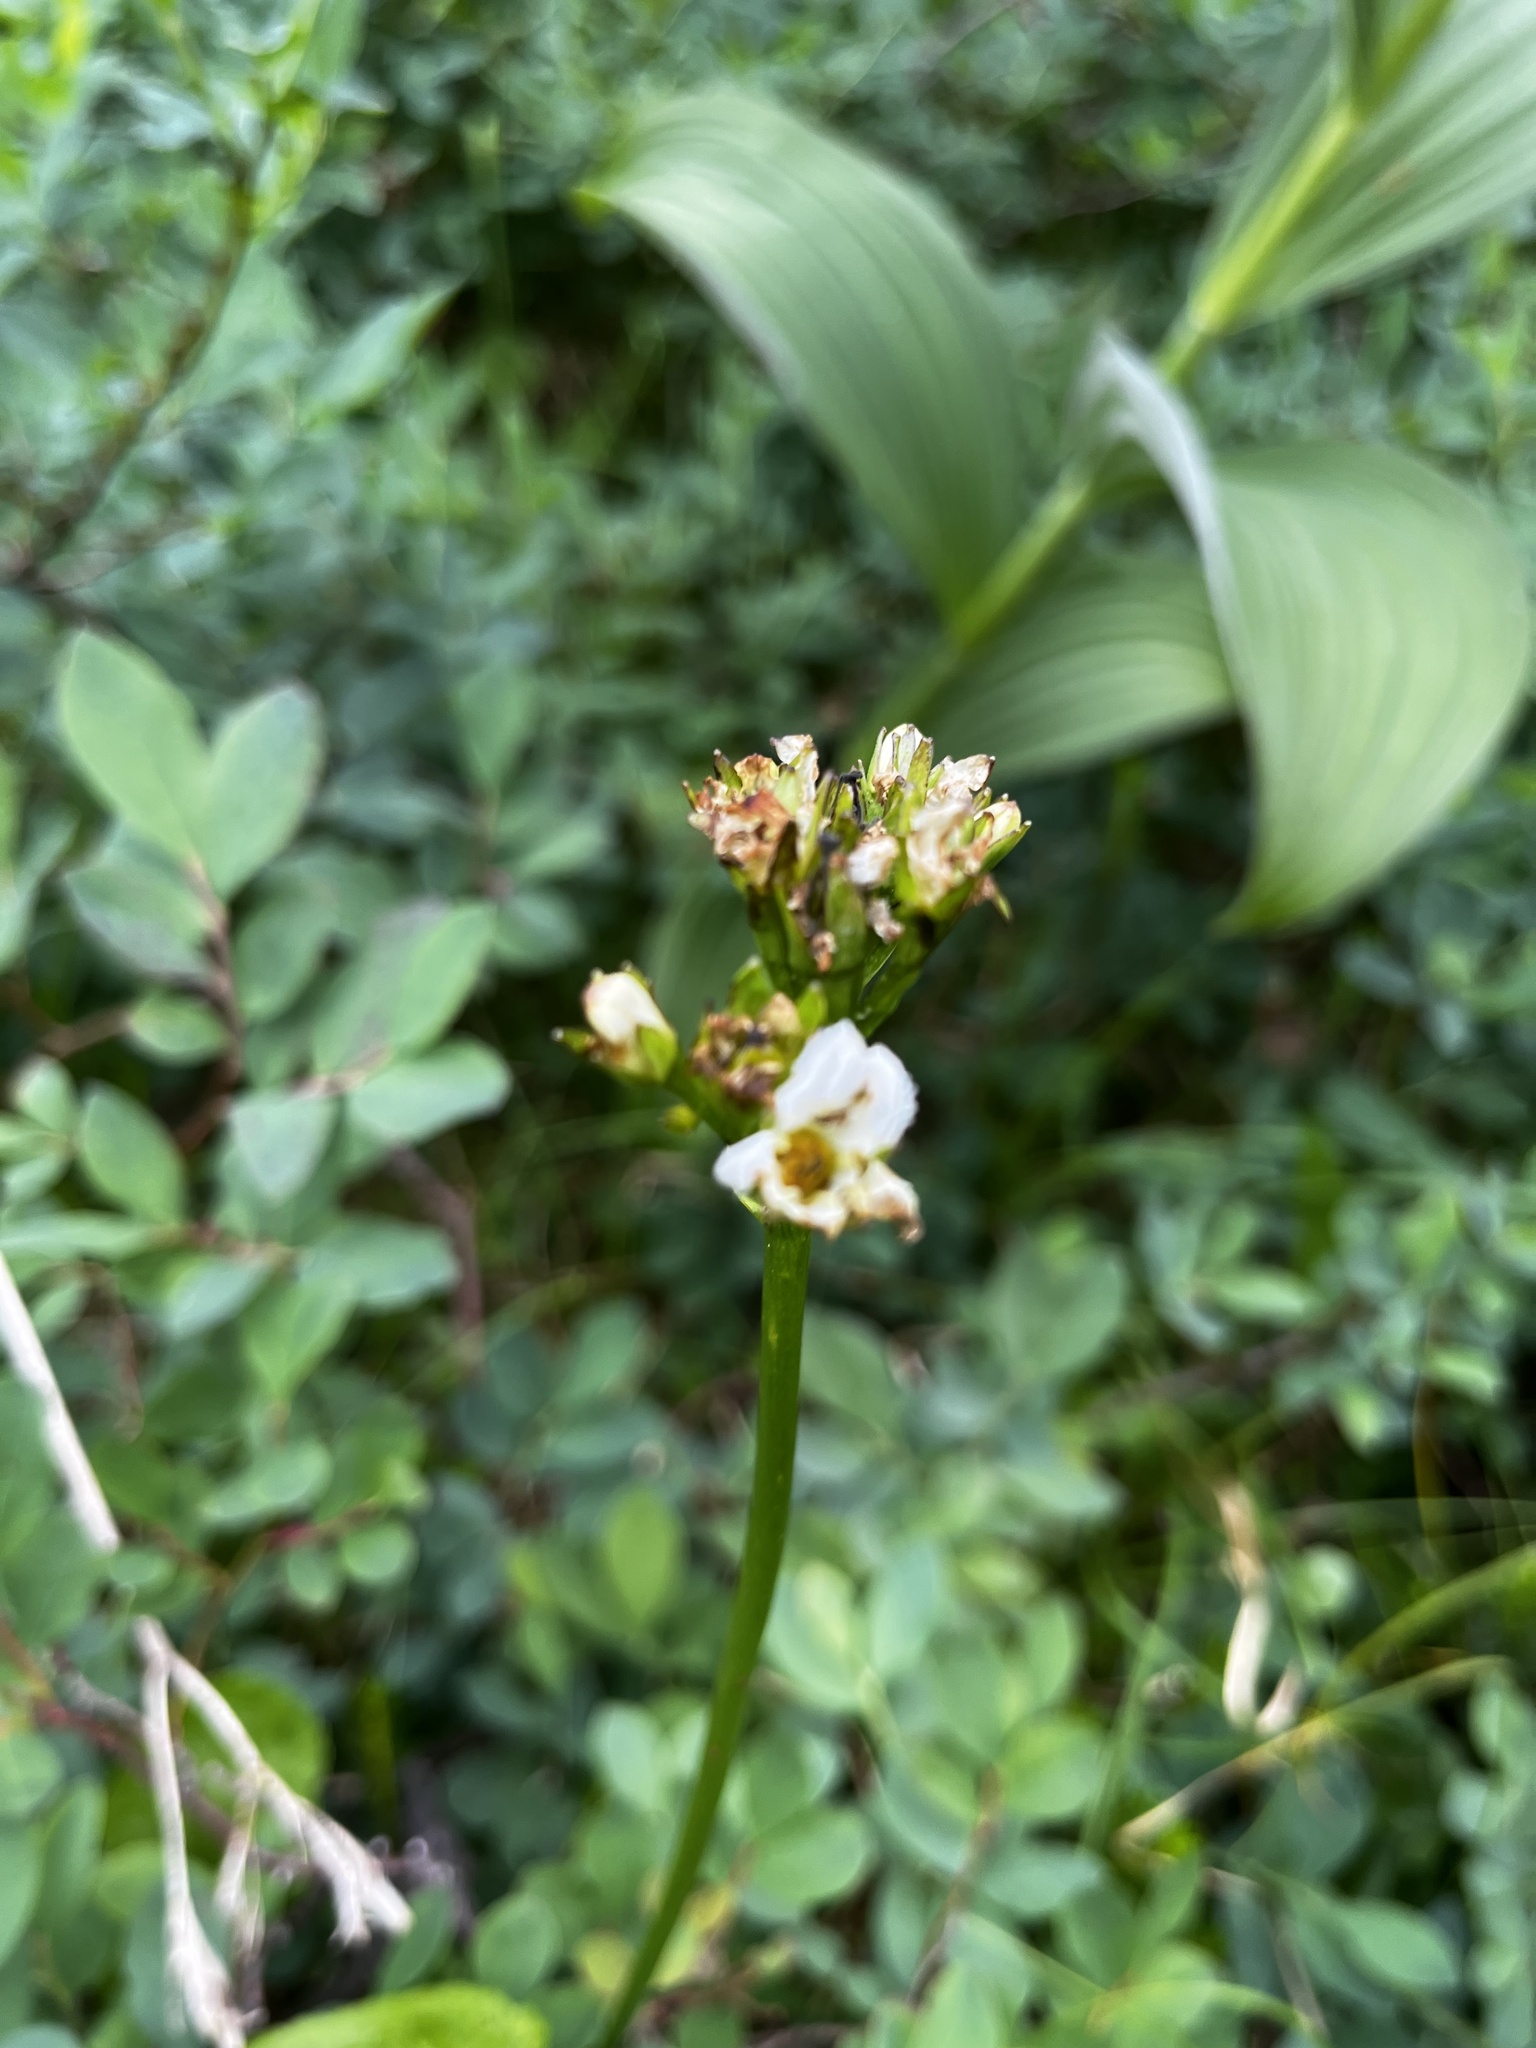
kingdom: Plantae
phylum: Tracheophyta
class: Magnoliopsida
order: Asterales
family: Menyanthaceae
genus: Nephrophyllidium
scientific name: Nephrophyllidium crista-galli
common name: Deer-cabbage
